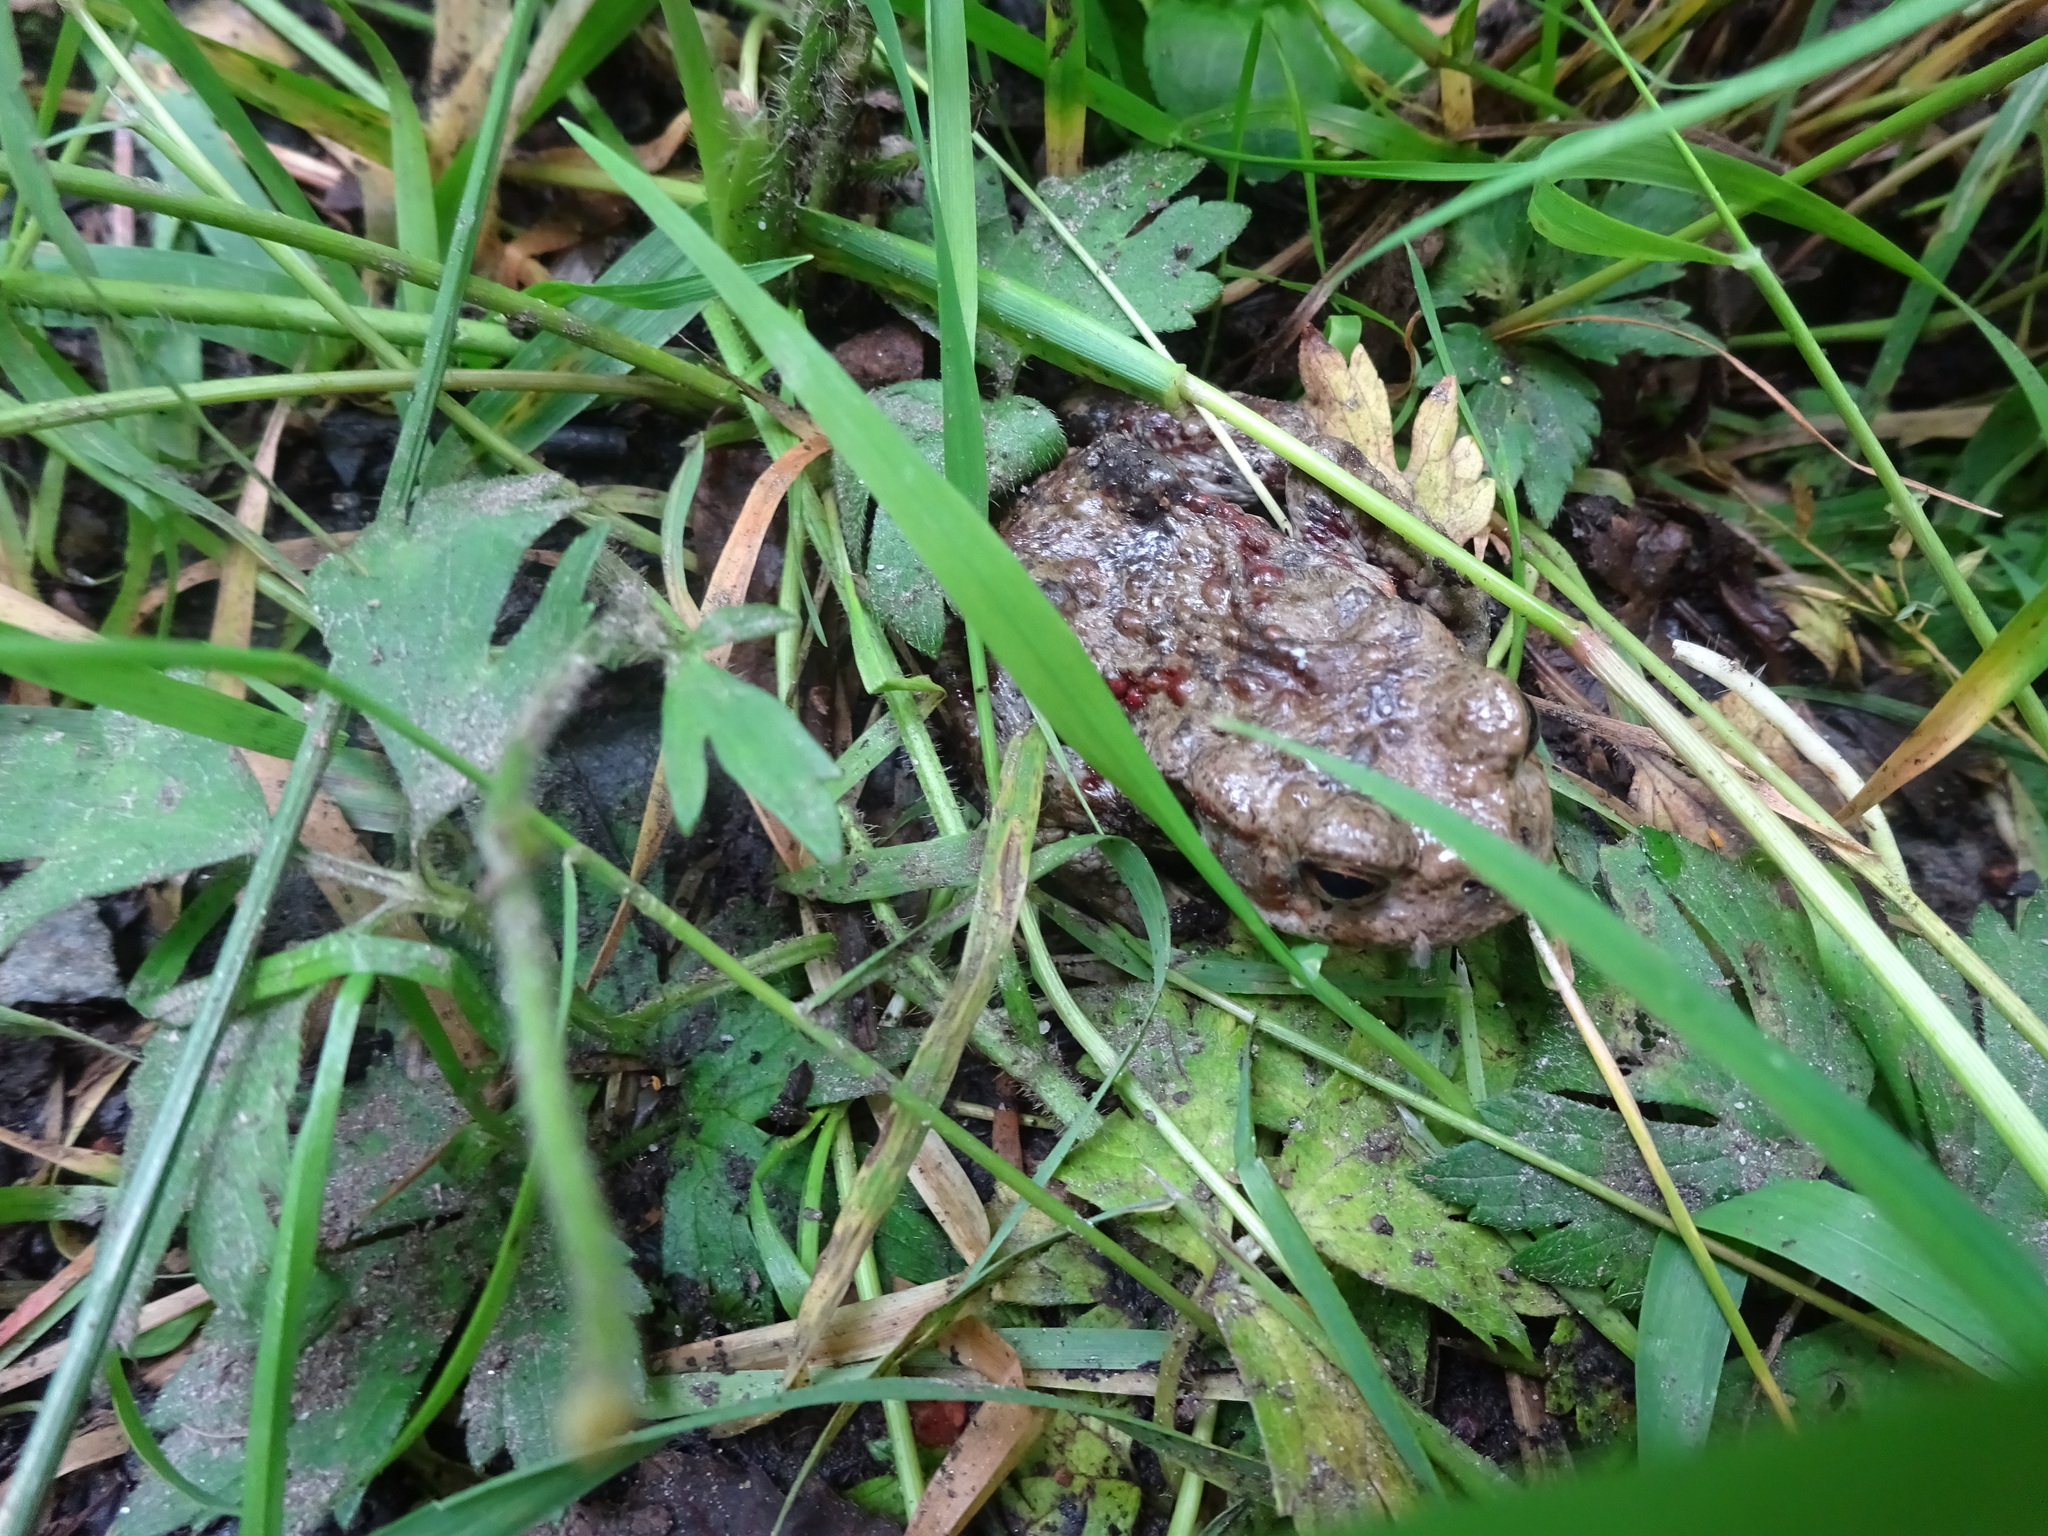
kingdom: Animalia
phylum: Chordata
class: Amphibia
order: Anura
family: Bufonidae
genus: Bufo
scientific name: Bufo bufo
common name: Common toad
